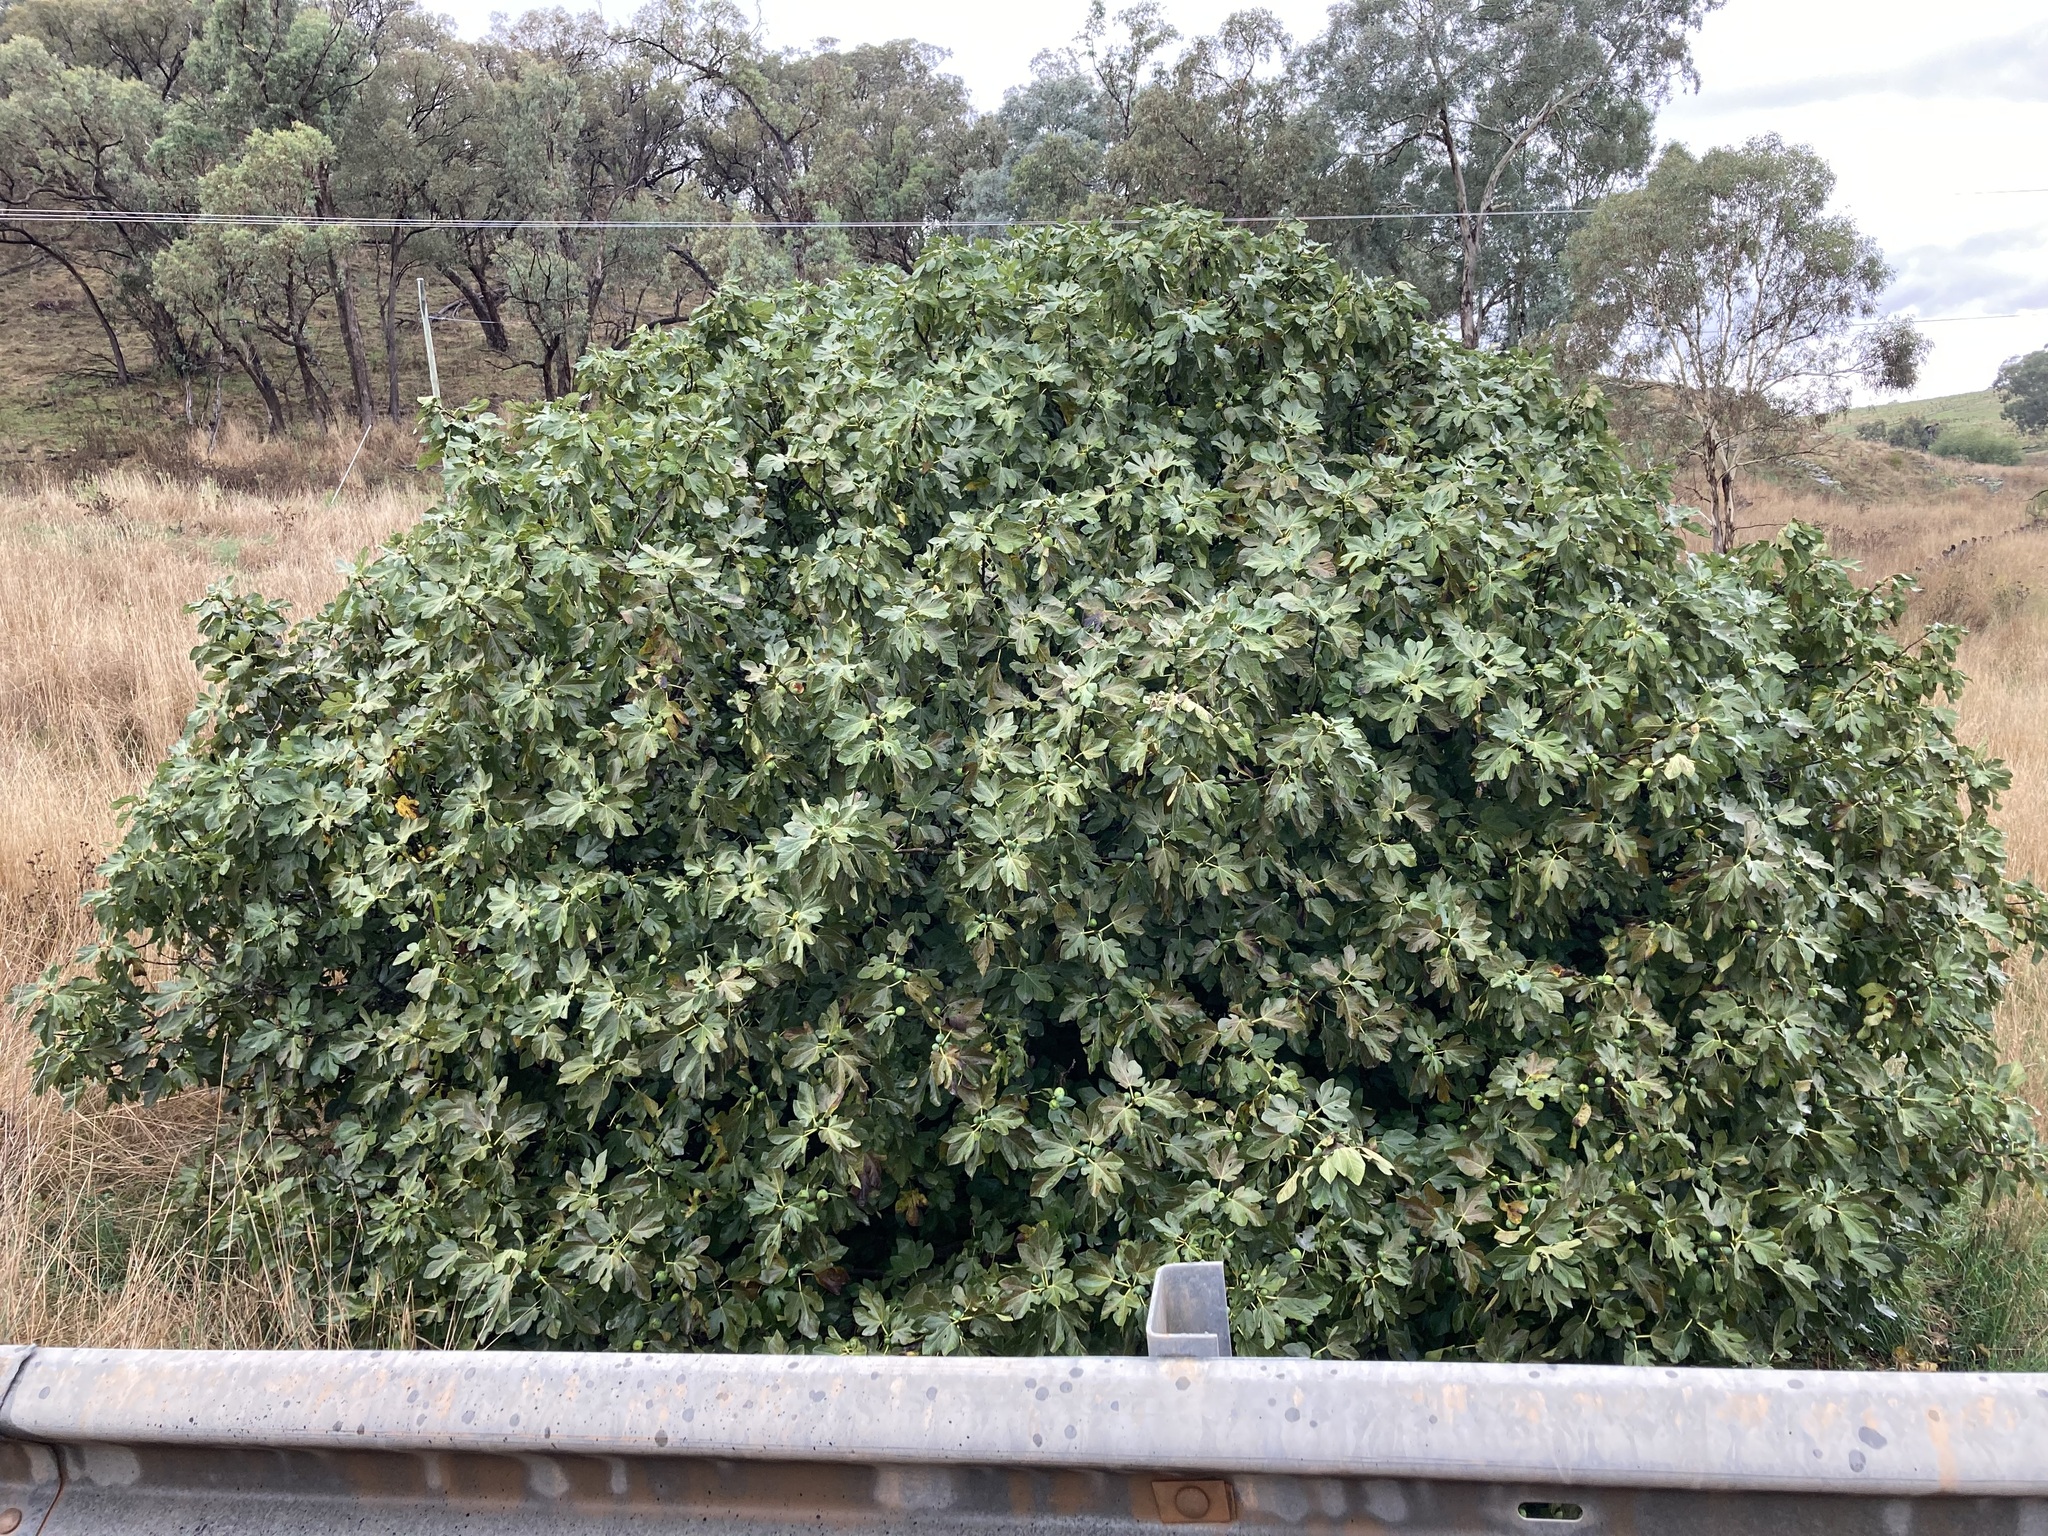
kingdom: Plantae
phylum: Tracheophyta
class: Magnoliopsida
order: Rosales
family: Moraceae
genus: Ficus
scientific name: Ficus carica
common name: Fig
